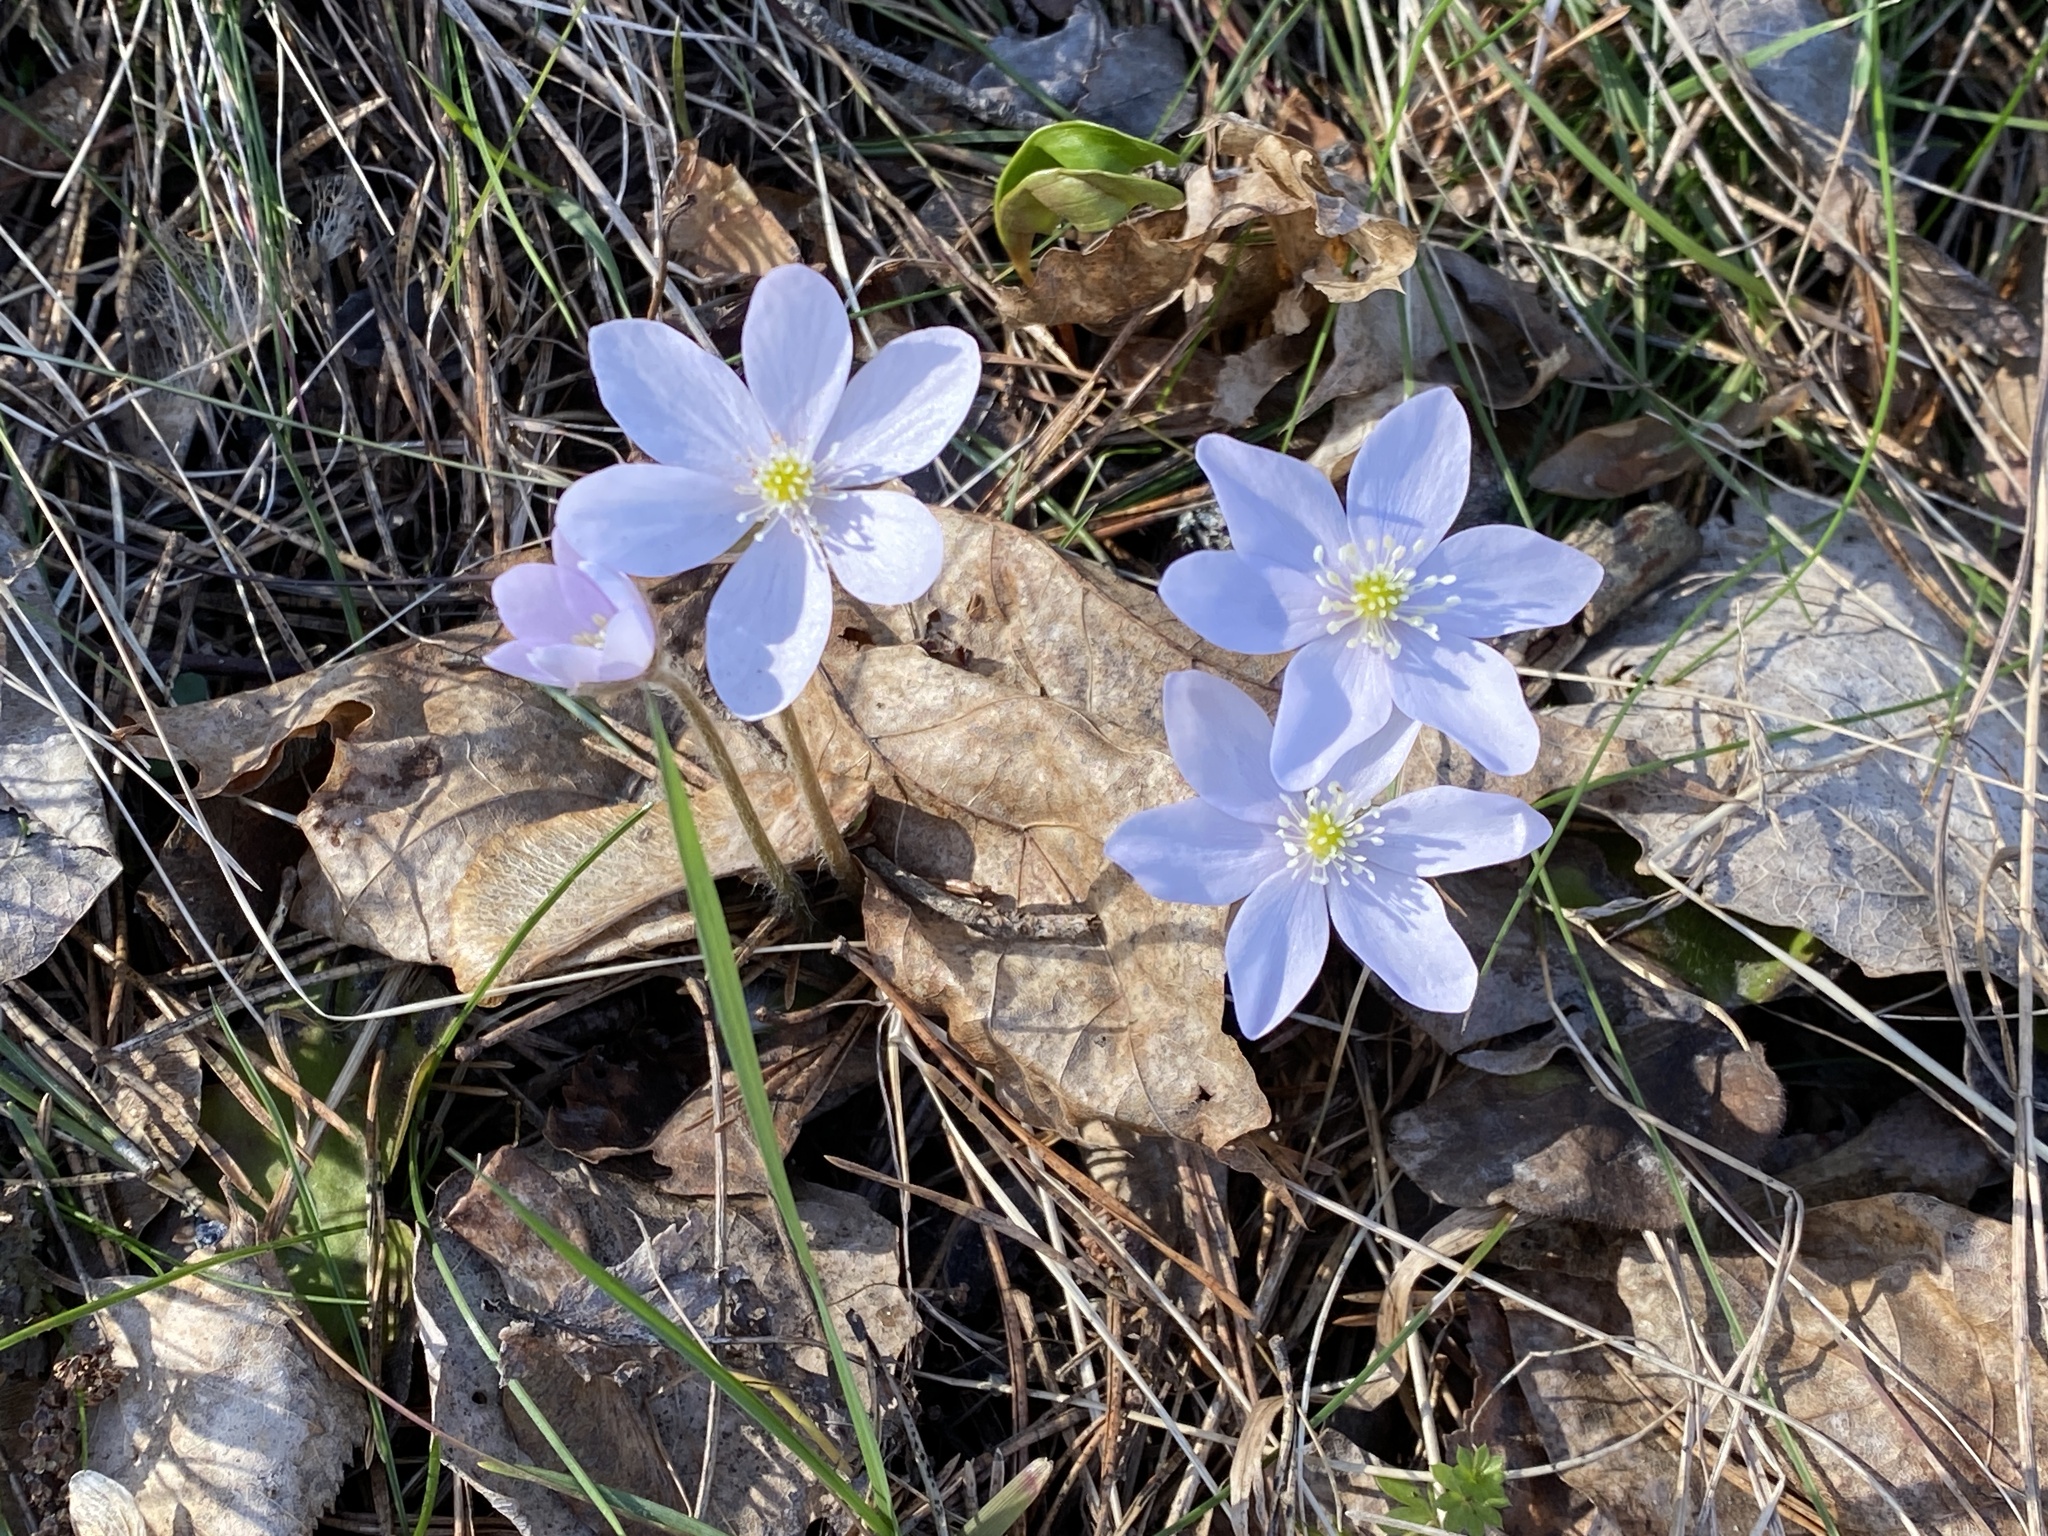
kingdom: Plantae
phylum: Tracheophyta
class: Magnoliopsida
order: Ranunculales
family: Ranunculaceae
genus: Hepatica
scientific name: Hepatica nobilis
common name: Liverleaf
